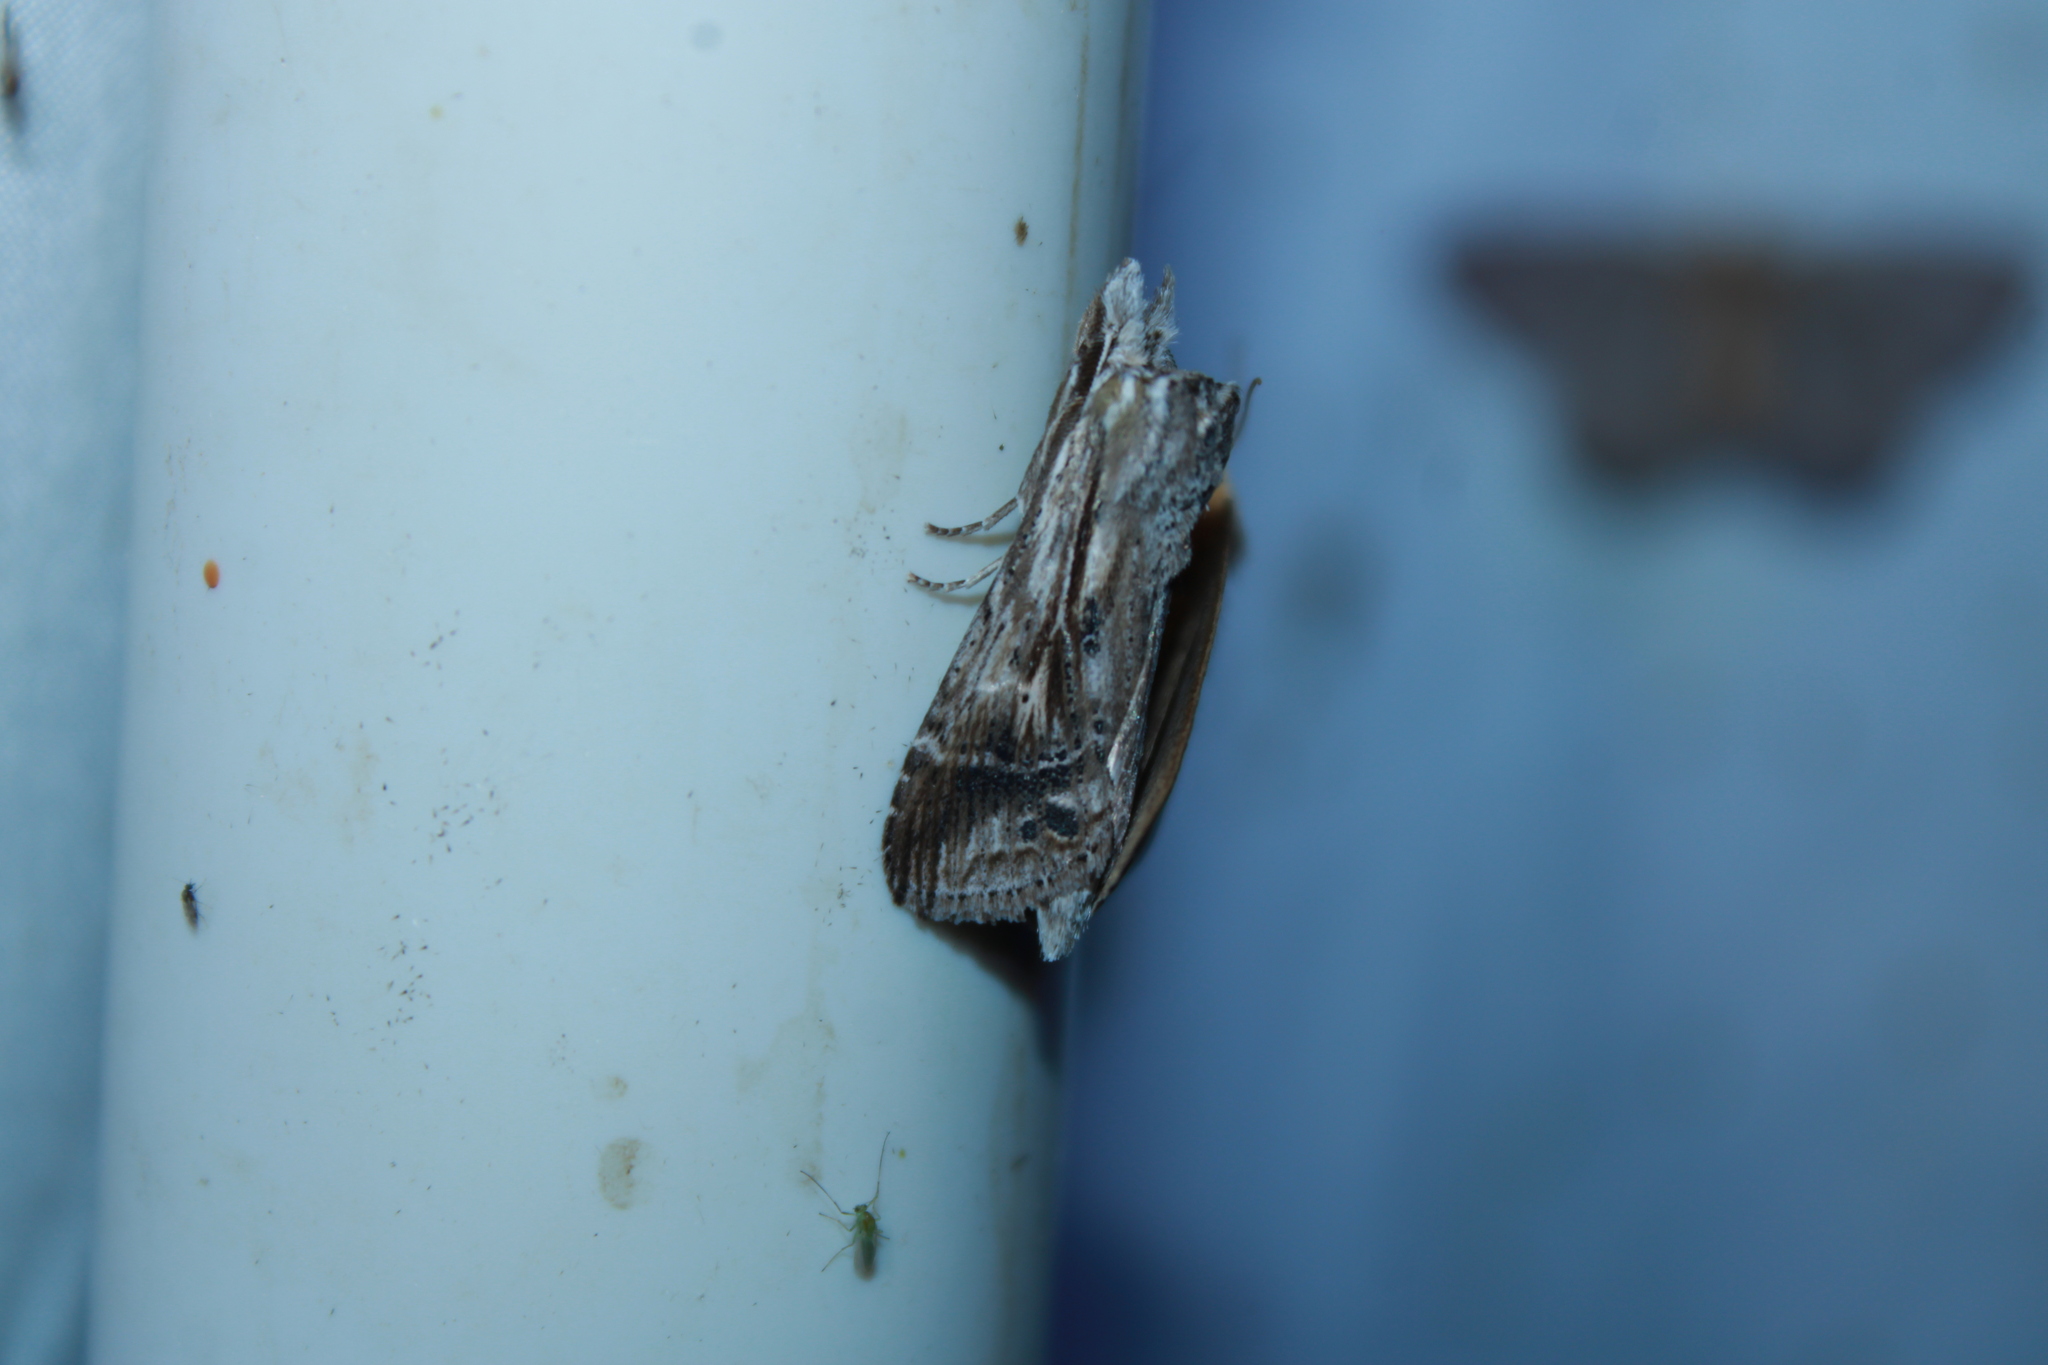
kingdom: Animalia
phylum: Arthropoda
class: Insecta
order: Lepidoptera
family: Notodontidae
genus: Dasylophia
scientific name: Dasylophia anguina
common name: Black-spotted prominent
